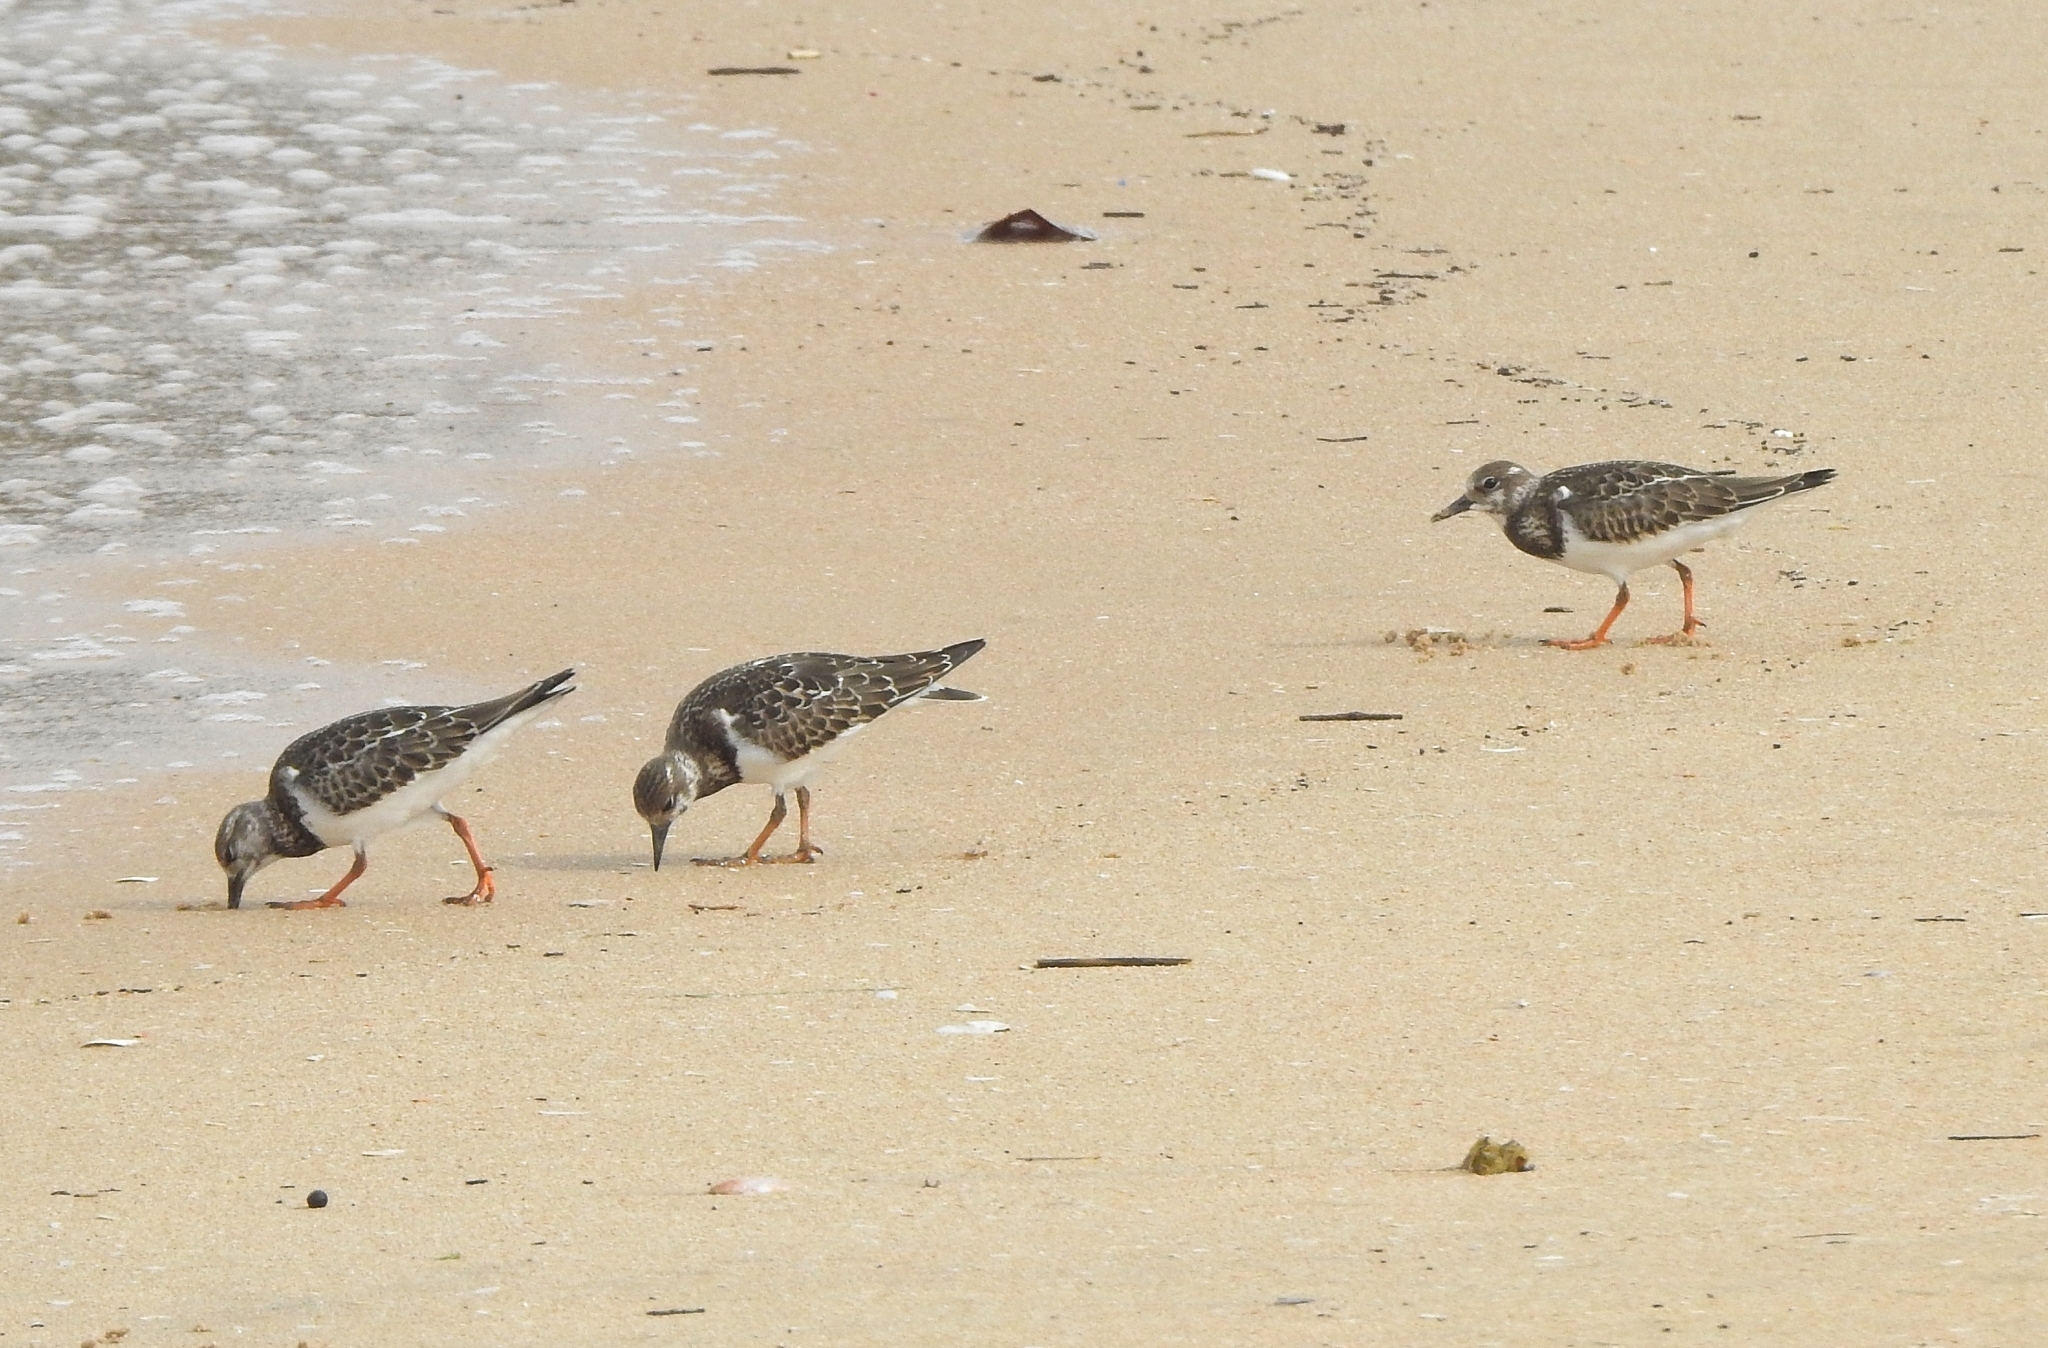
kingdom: Animalia
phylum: Chordata
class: Aves
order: Charadriiformes
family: Scolopacidae
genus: Arenaria
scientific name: Arenaria interpres
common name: Ruddy turnstone
